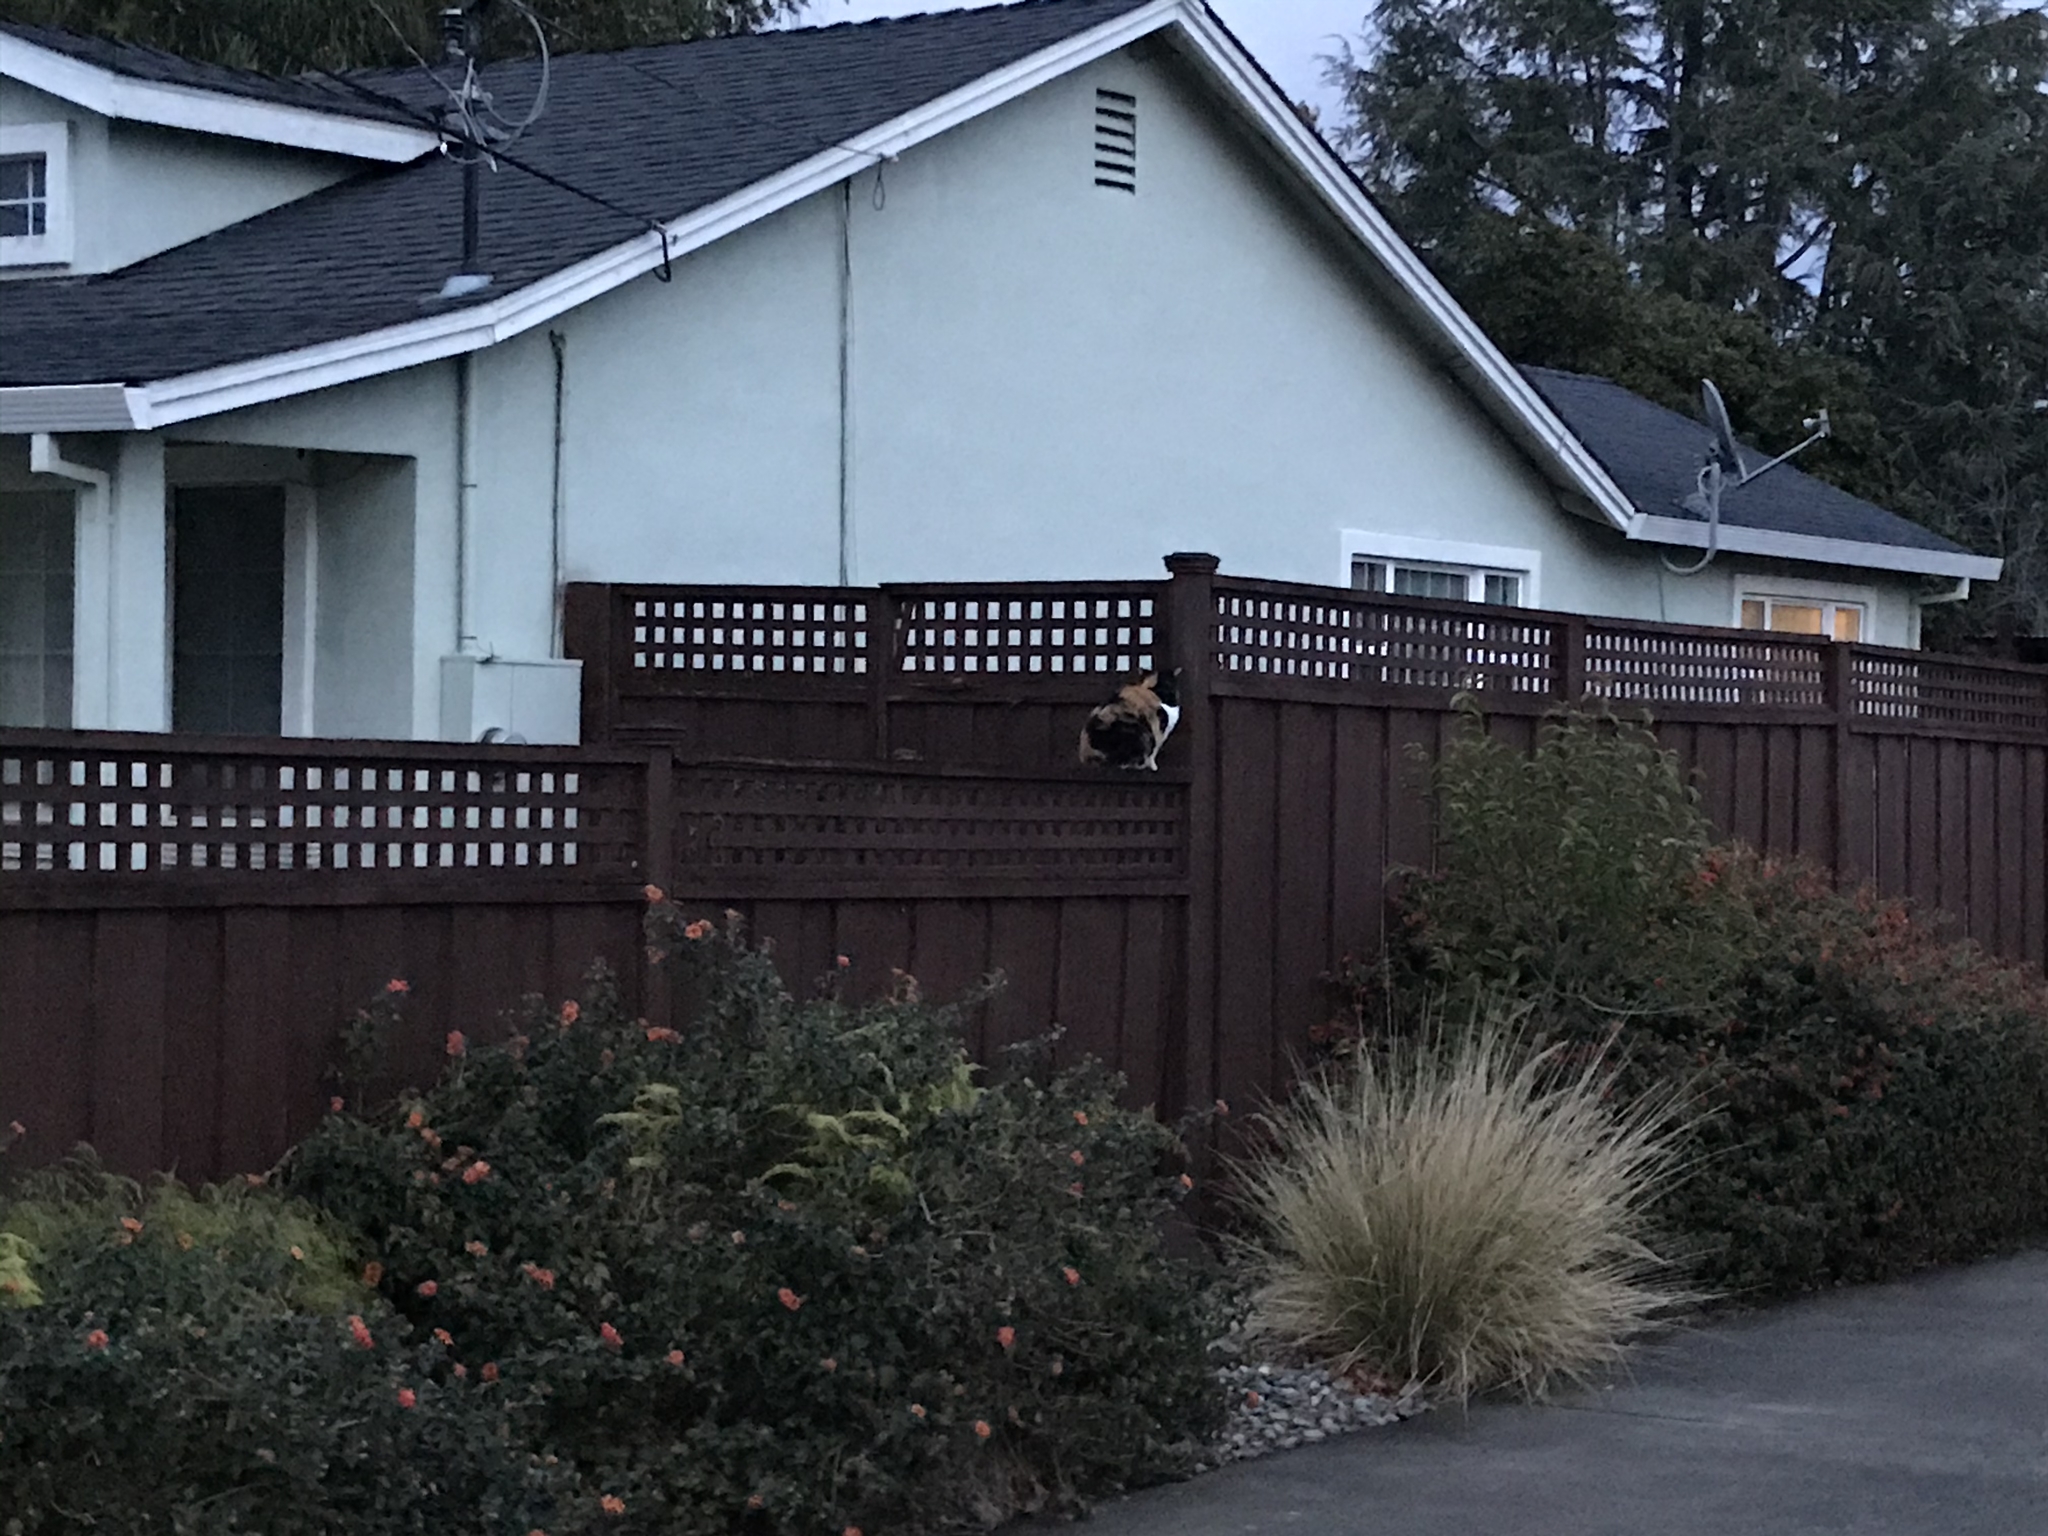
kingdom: Animalia
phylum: Chordata
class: Mammalia
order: Carnivora
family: Felidae
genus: Felis
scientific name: Felis catus
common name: Domestic cat
